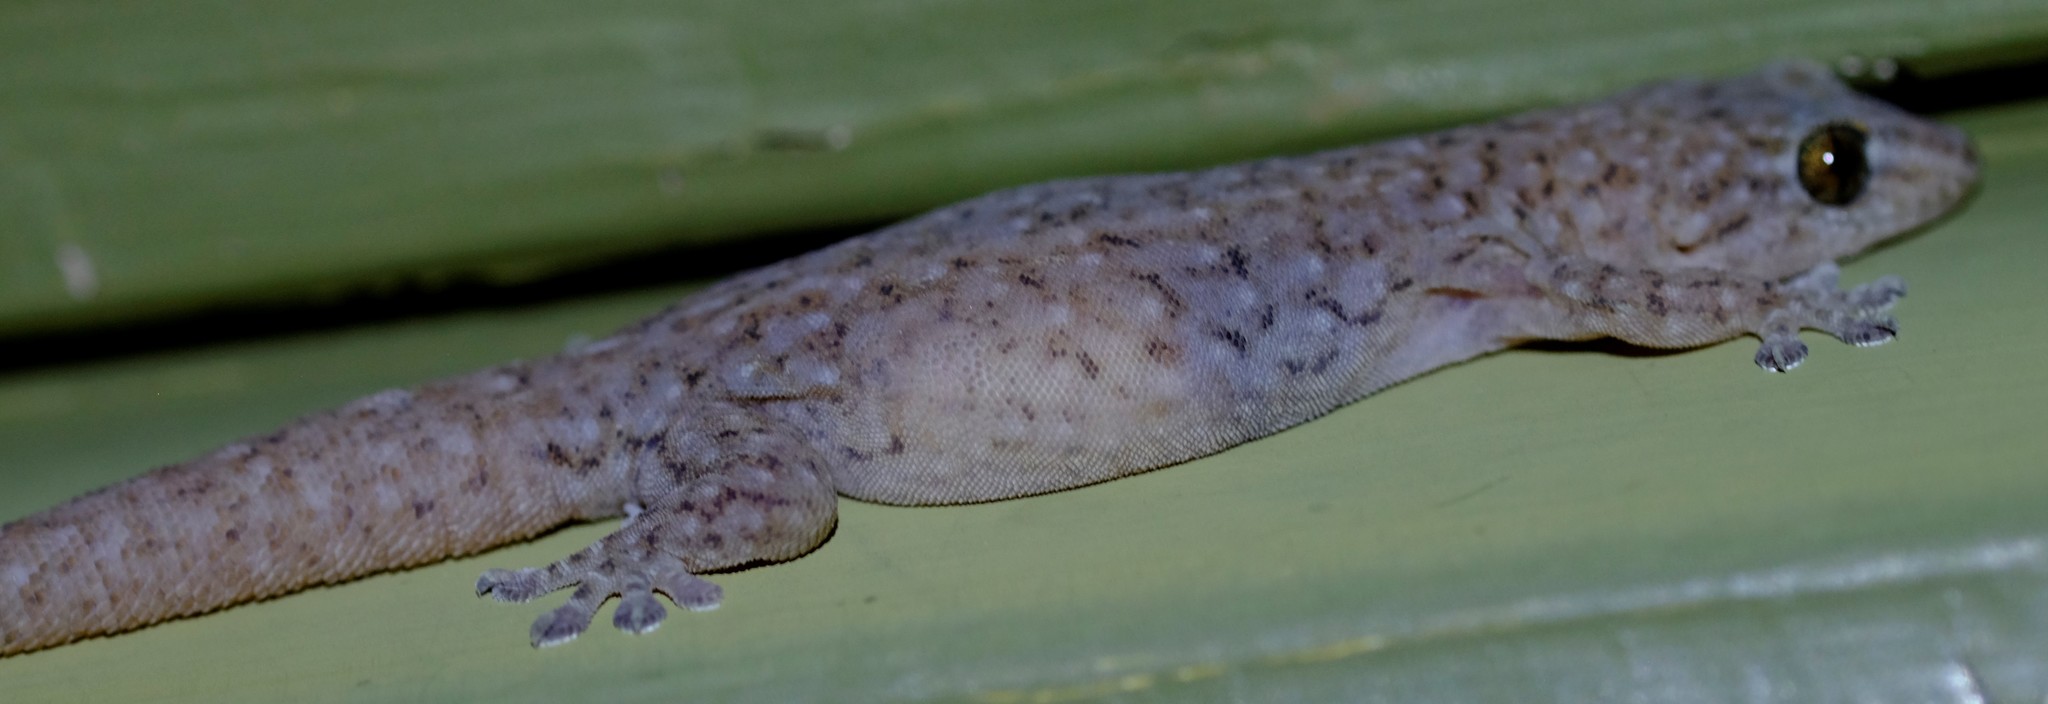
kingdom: Animalia
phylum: Chordata
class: Squamata
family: Gekkonidae
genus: Gehyra
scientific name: Gehyra lazelli
